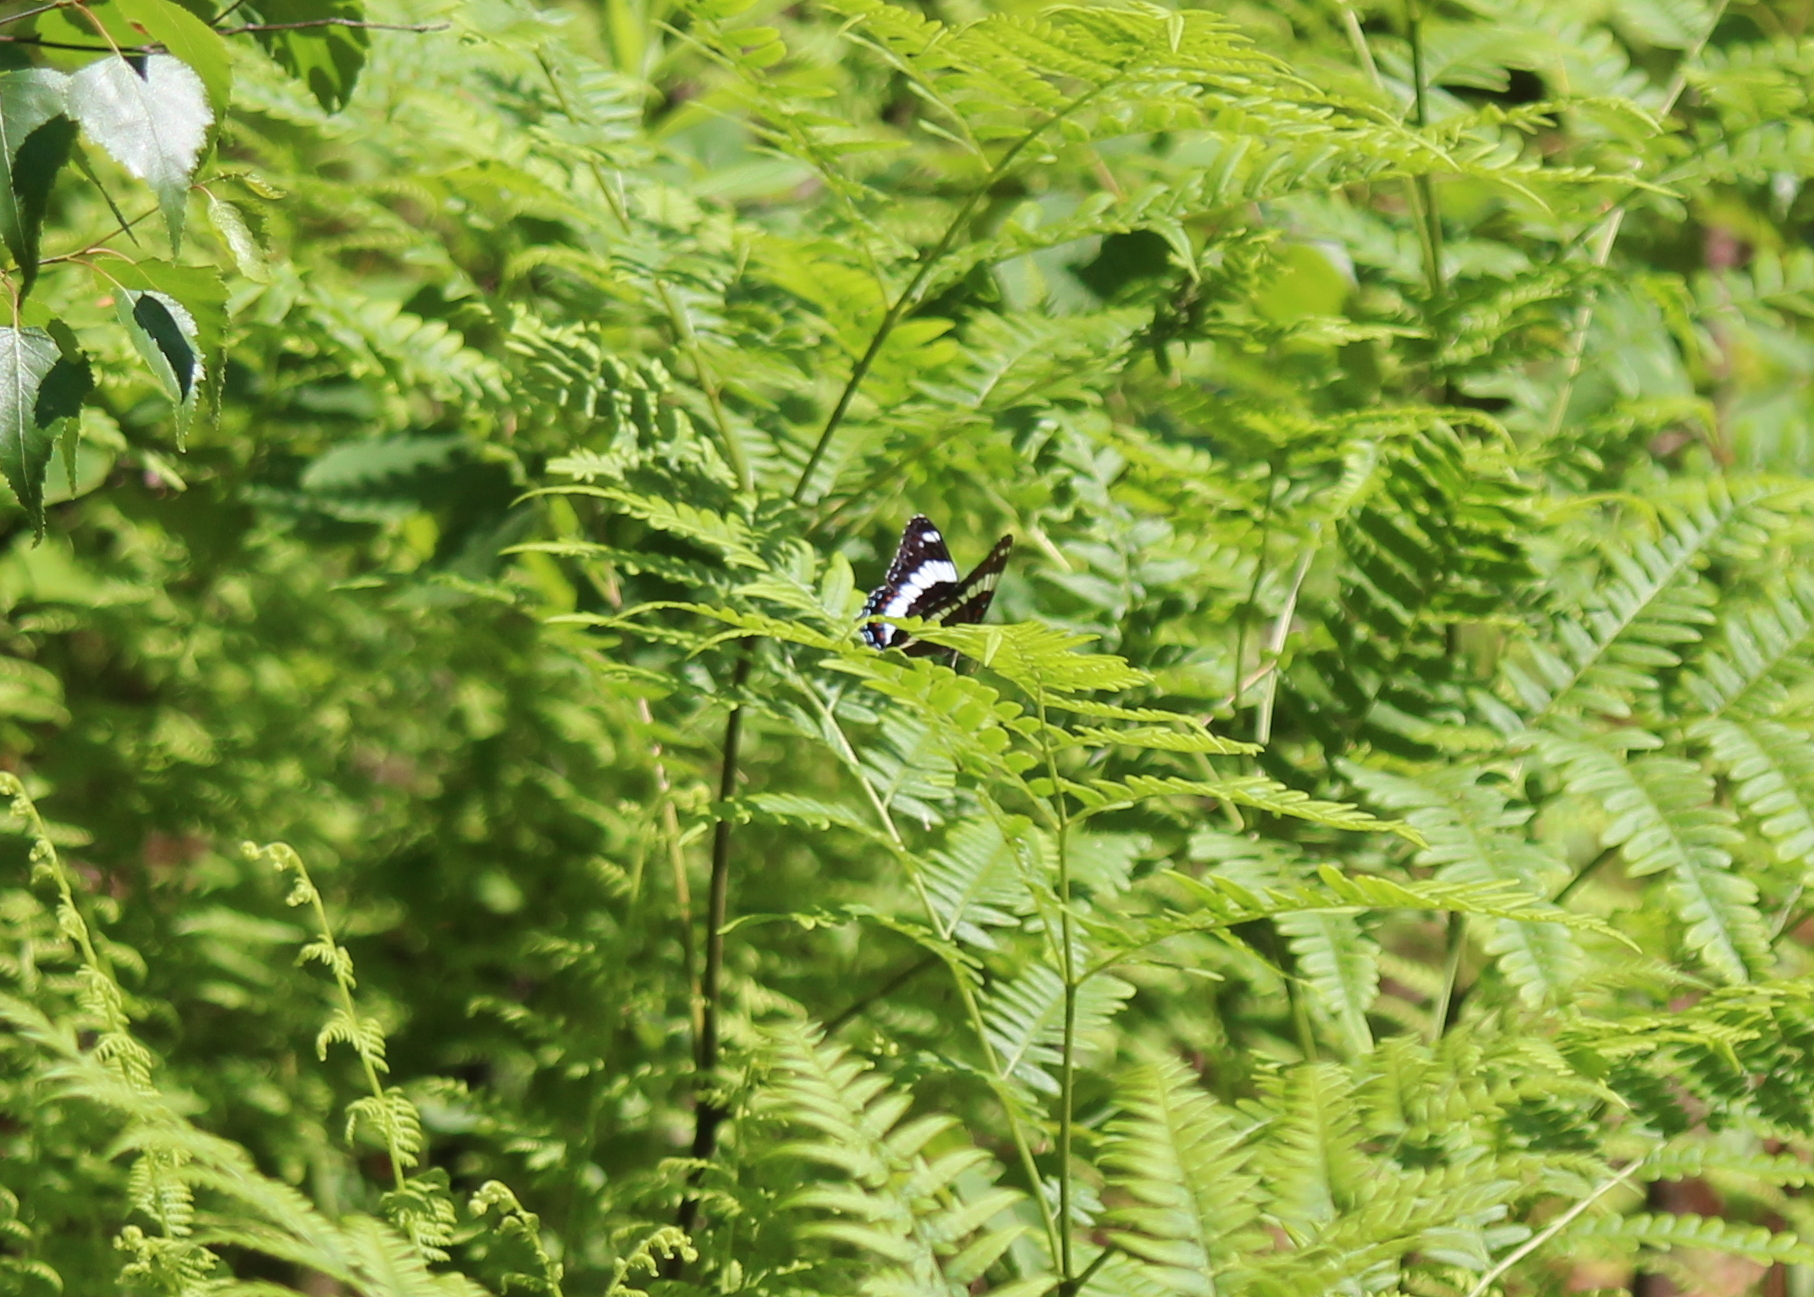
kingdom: Animalia
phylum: Arthropoda
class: Insecta
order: Lepidoptera
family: Nymphalidae
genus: Limenitis
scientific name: Limenitis arthemis
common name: Red-spotted admiral
